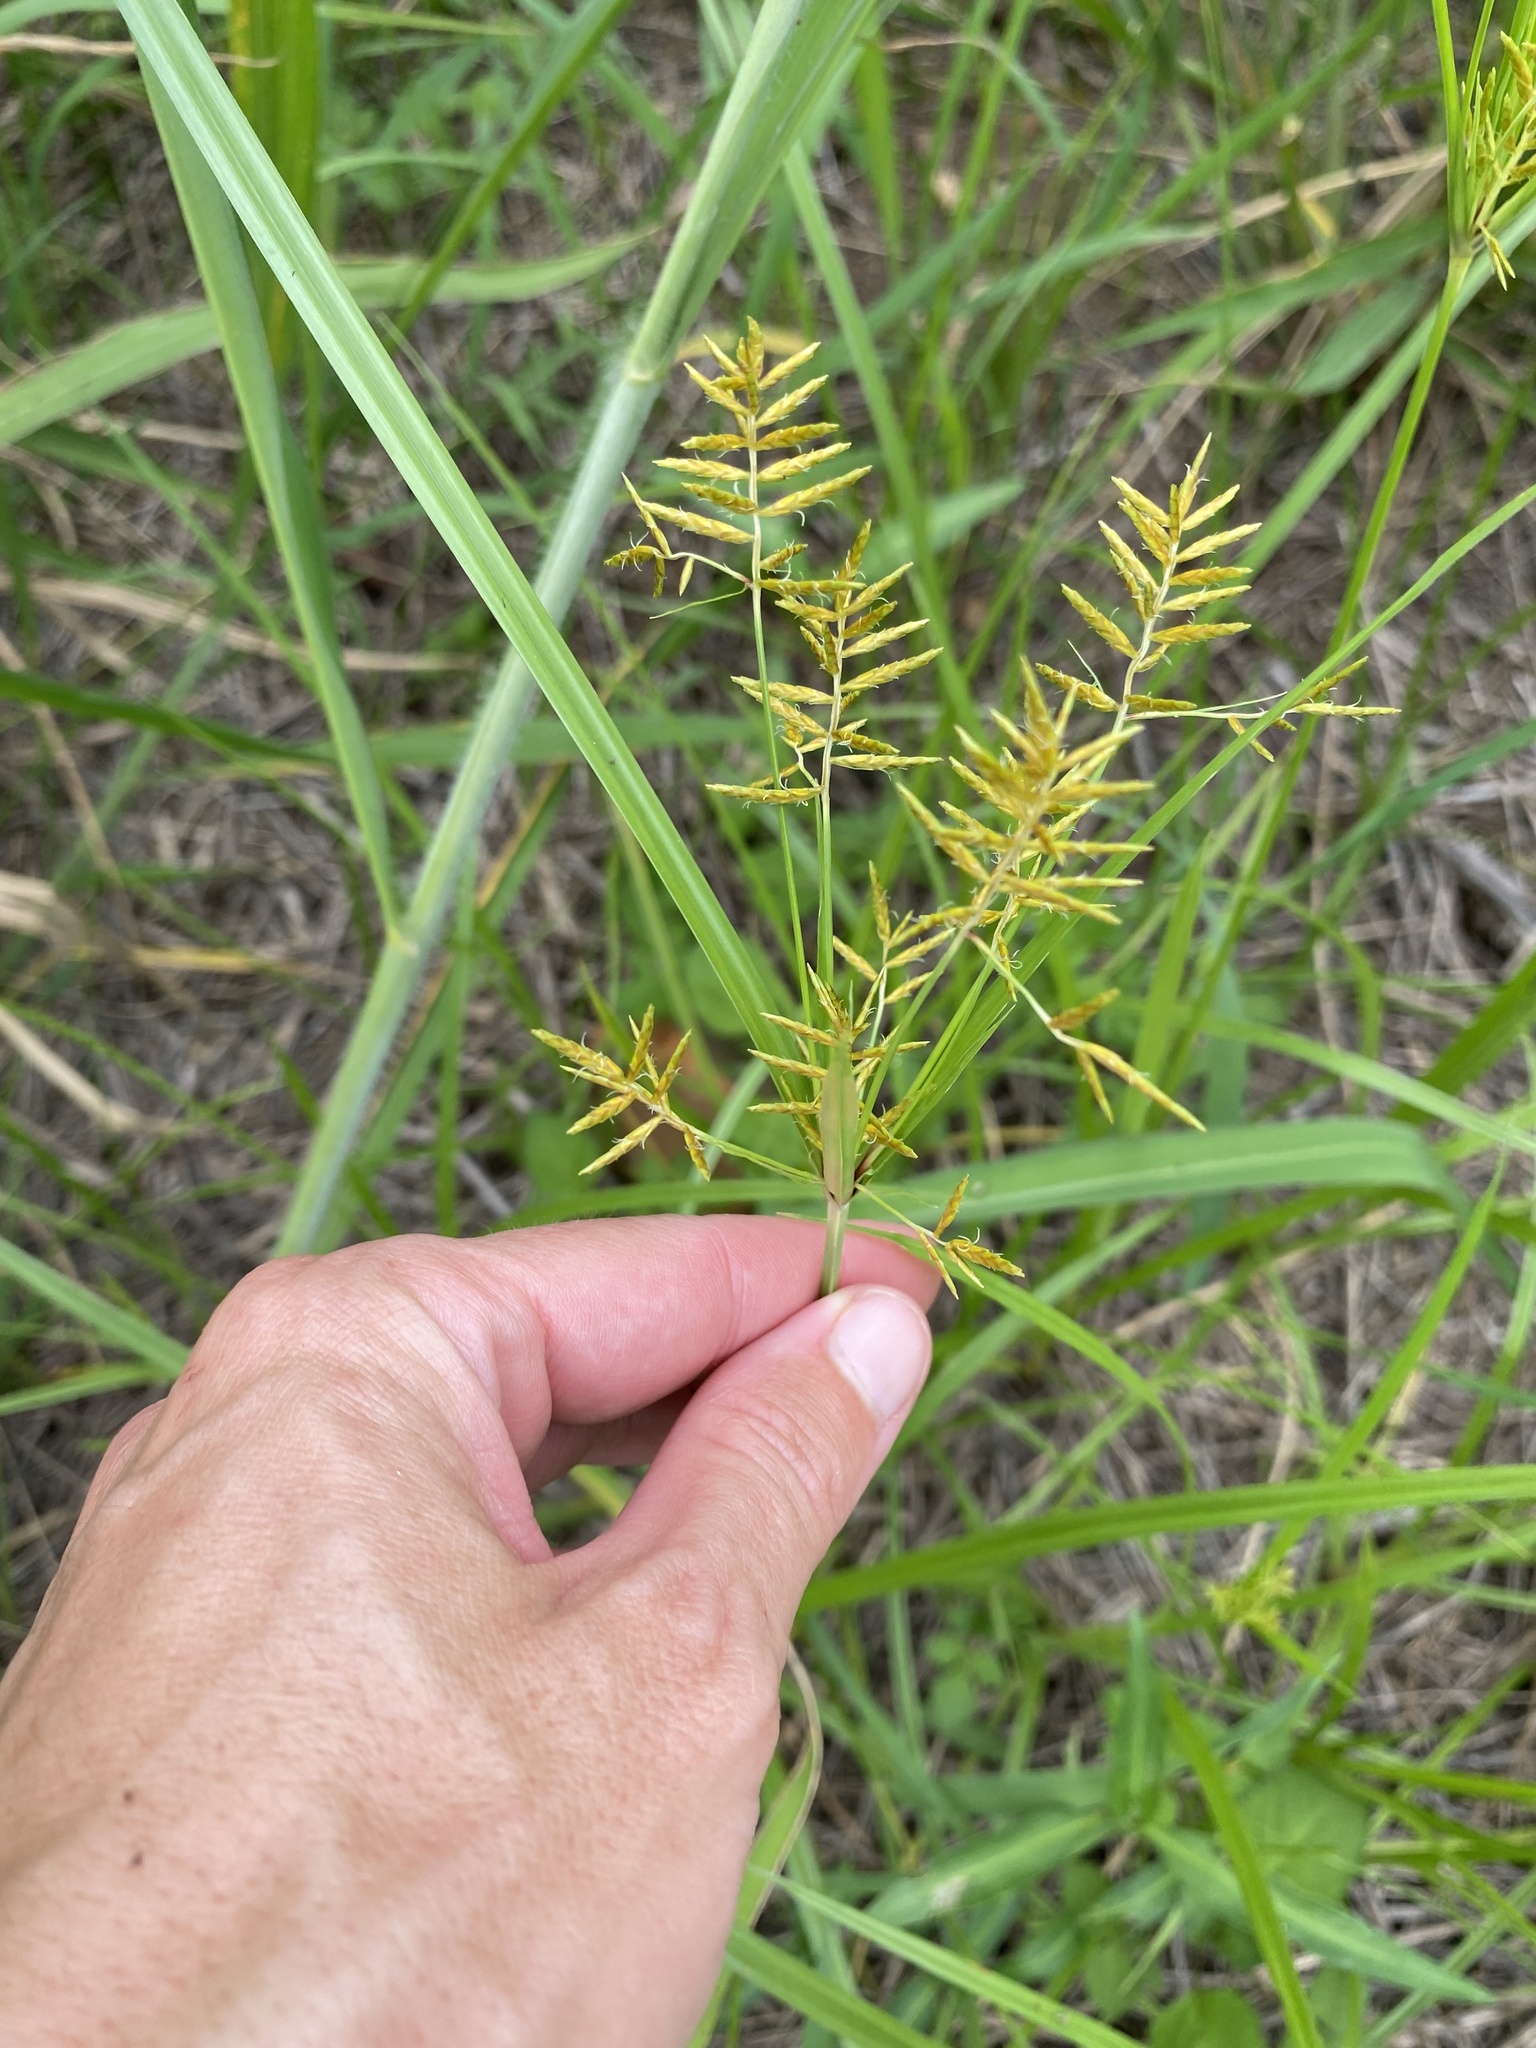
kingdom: Plantae
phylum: Tracheophyta
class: Liliopsida
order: Poales
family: Cyperaceae
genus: Cyperus
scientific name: Cyperus esculentus
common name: Yellow nutsedge
